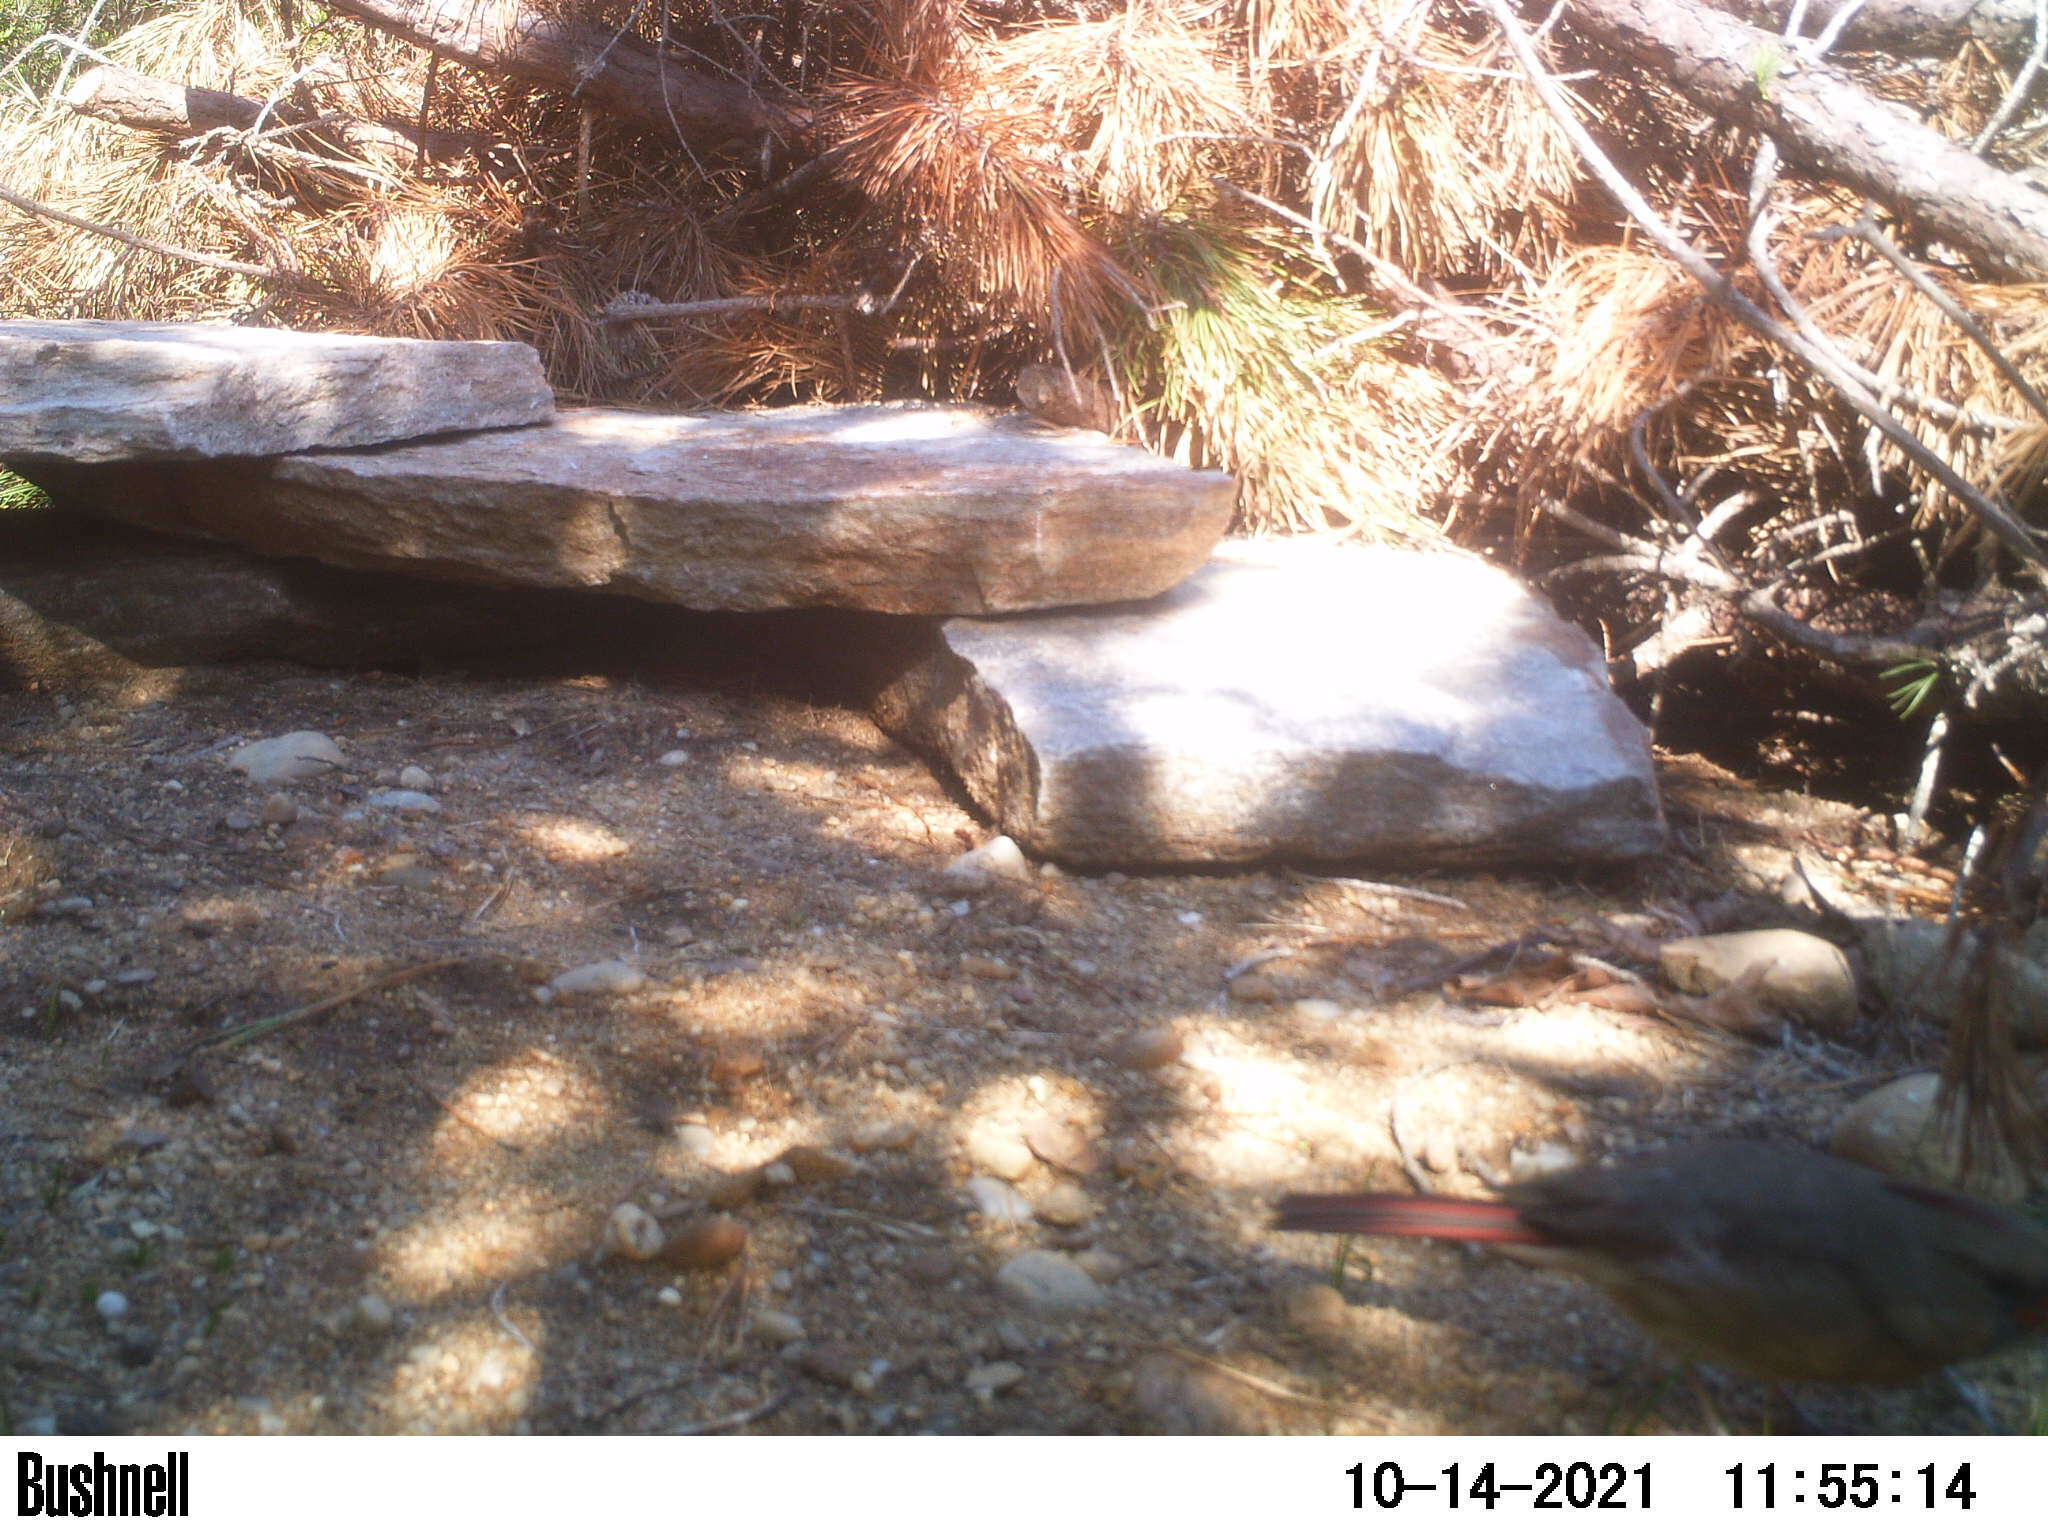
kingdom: Animalia
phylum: Chordata
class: Aves
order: Passeriformes
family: Cardinalidae
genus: Cardinalis
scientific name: Cardinalis cardinalis
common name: Northern cardinal
